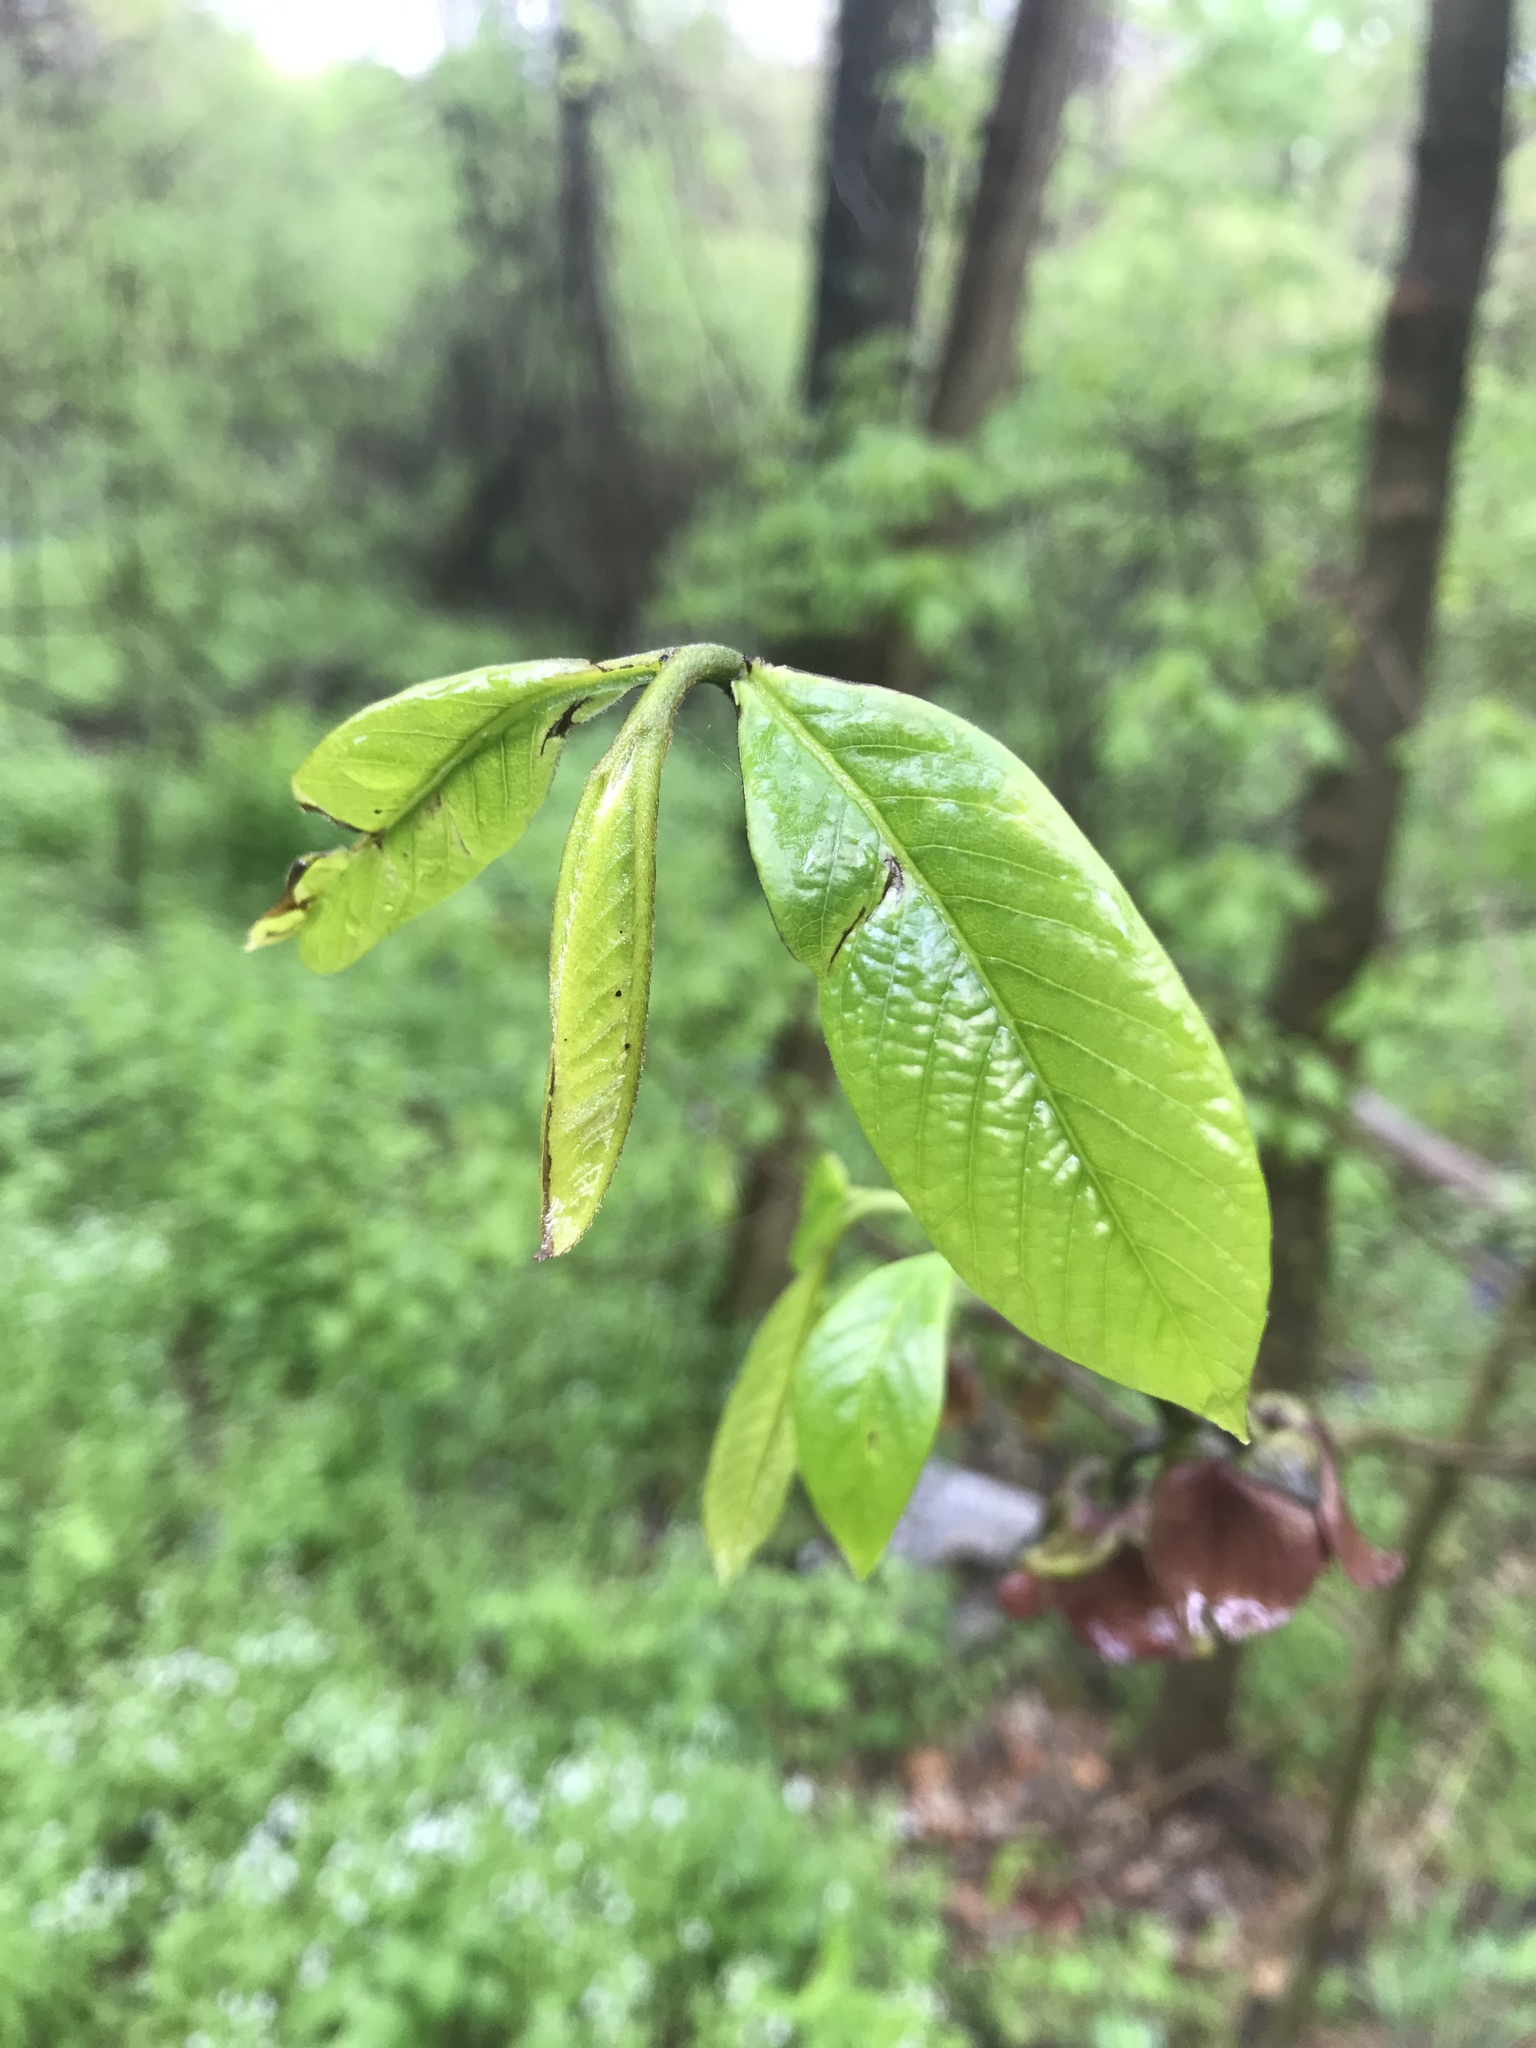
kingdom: Plantae
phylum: Tracheophyta
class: Magnoliopsida
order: Magnoliales
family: Annonaceae
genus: Asimina
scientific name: Asimina triloba
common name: Dog-banana
